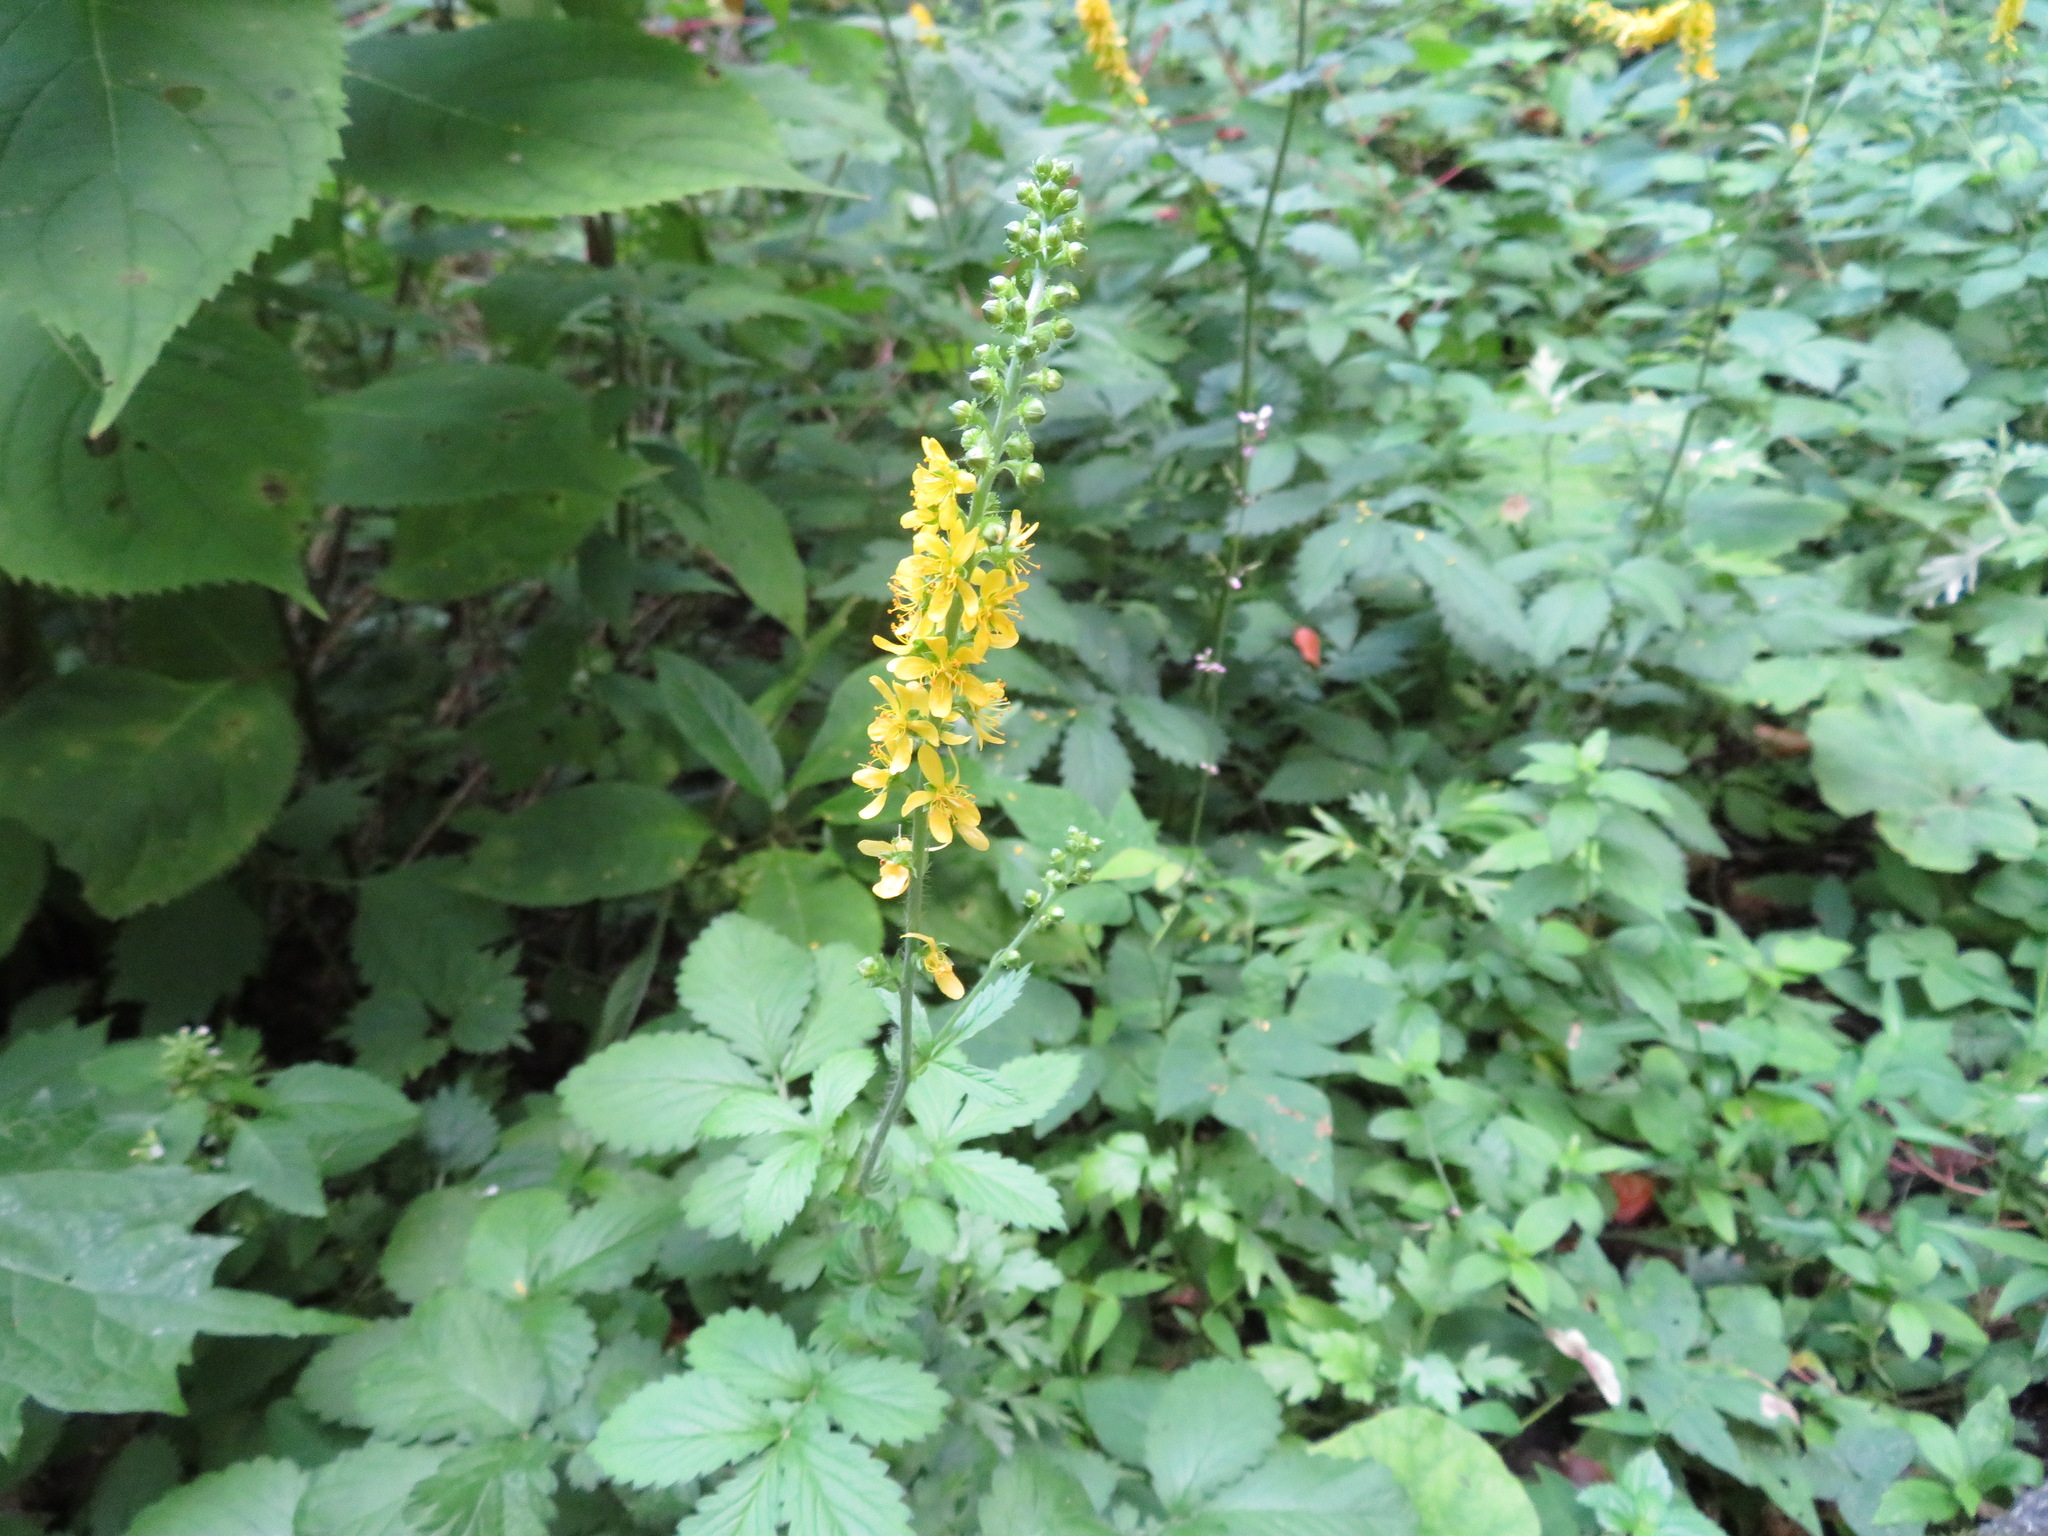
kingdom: Plantae
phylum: Tracheophyta
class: Magnoliopsida
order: Rosales
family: Rosaceae
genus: Agrimonia
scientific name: Agrimonia pilosa
